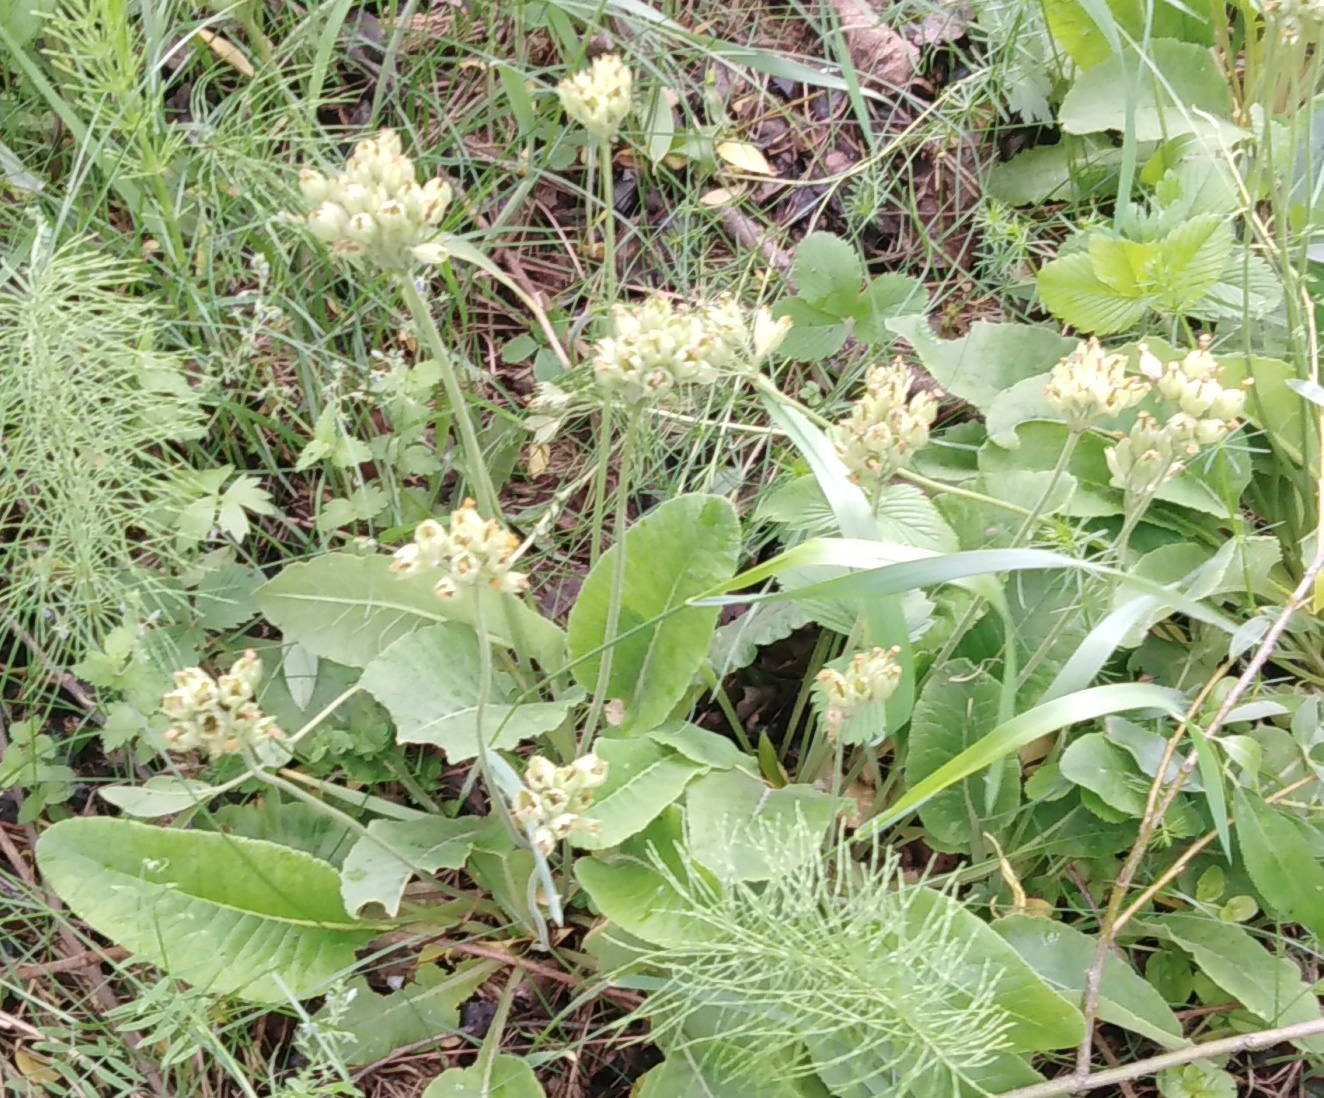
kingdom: Plantae
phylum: Tracheophyta
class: Magnoliopsida
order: Ericales
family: Primulaceae
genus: Primula
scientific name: Primula veris
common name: Cowslip
